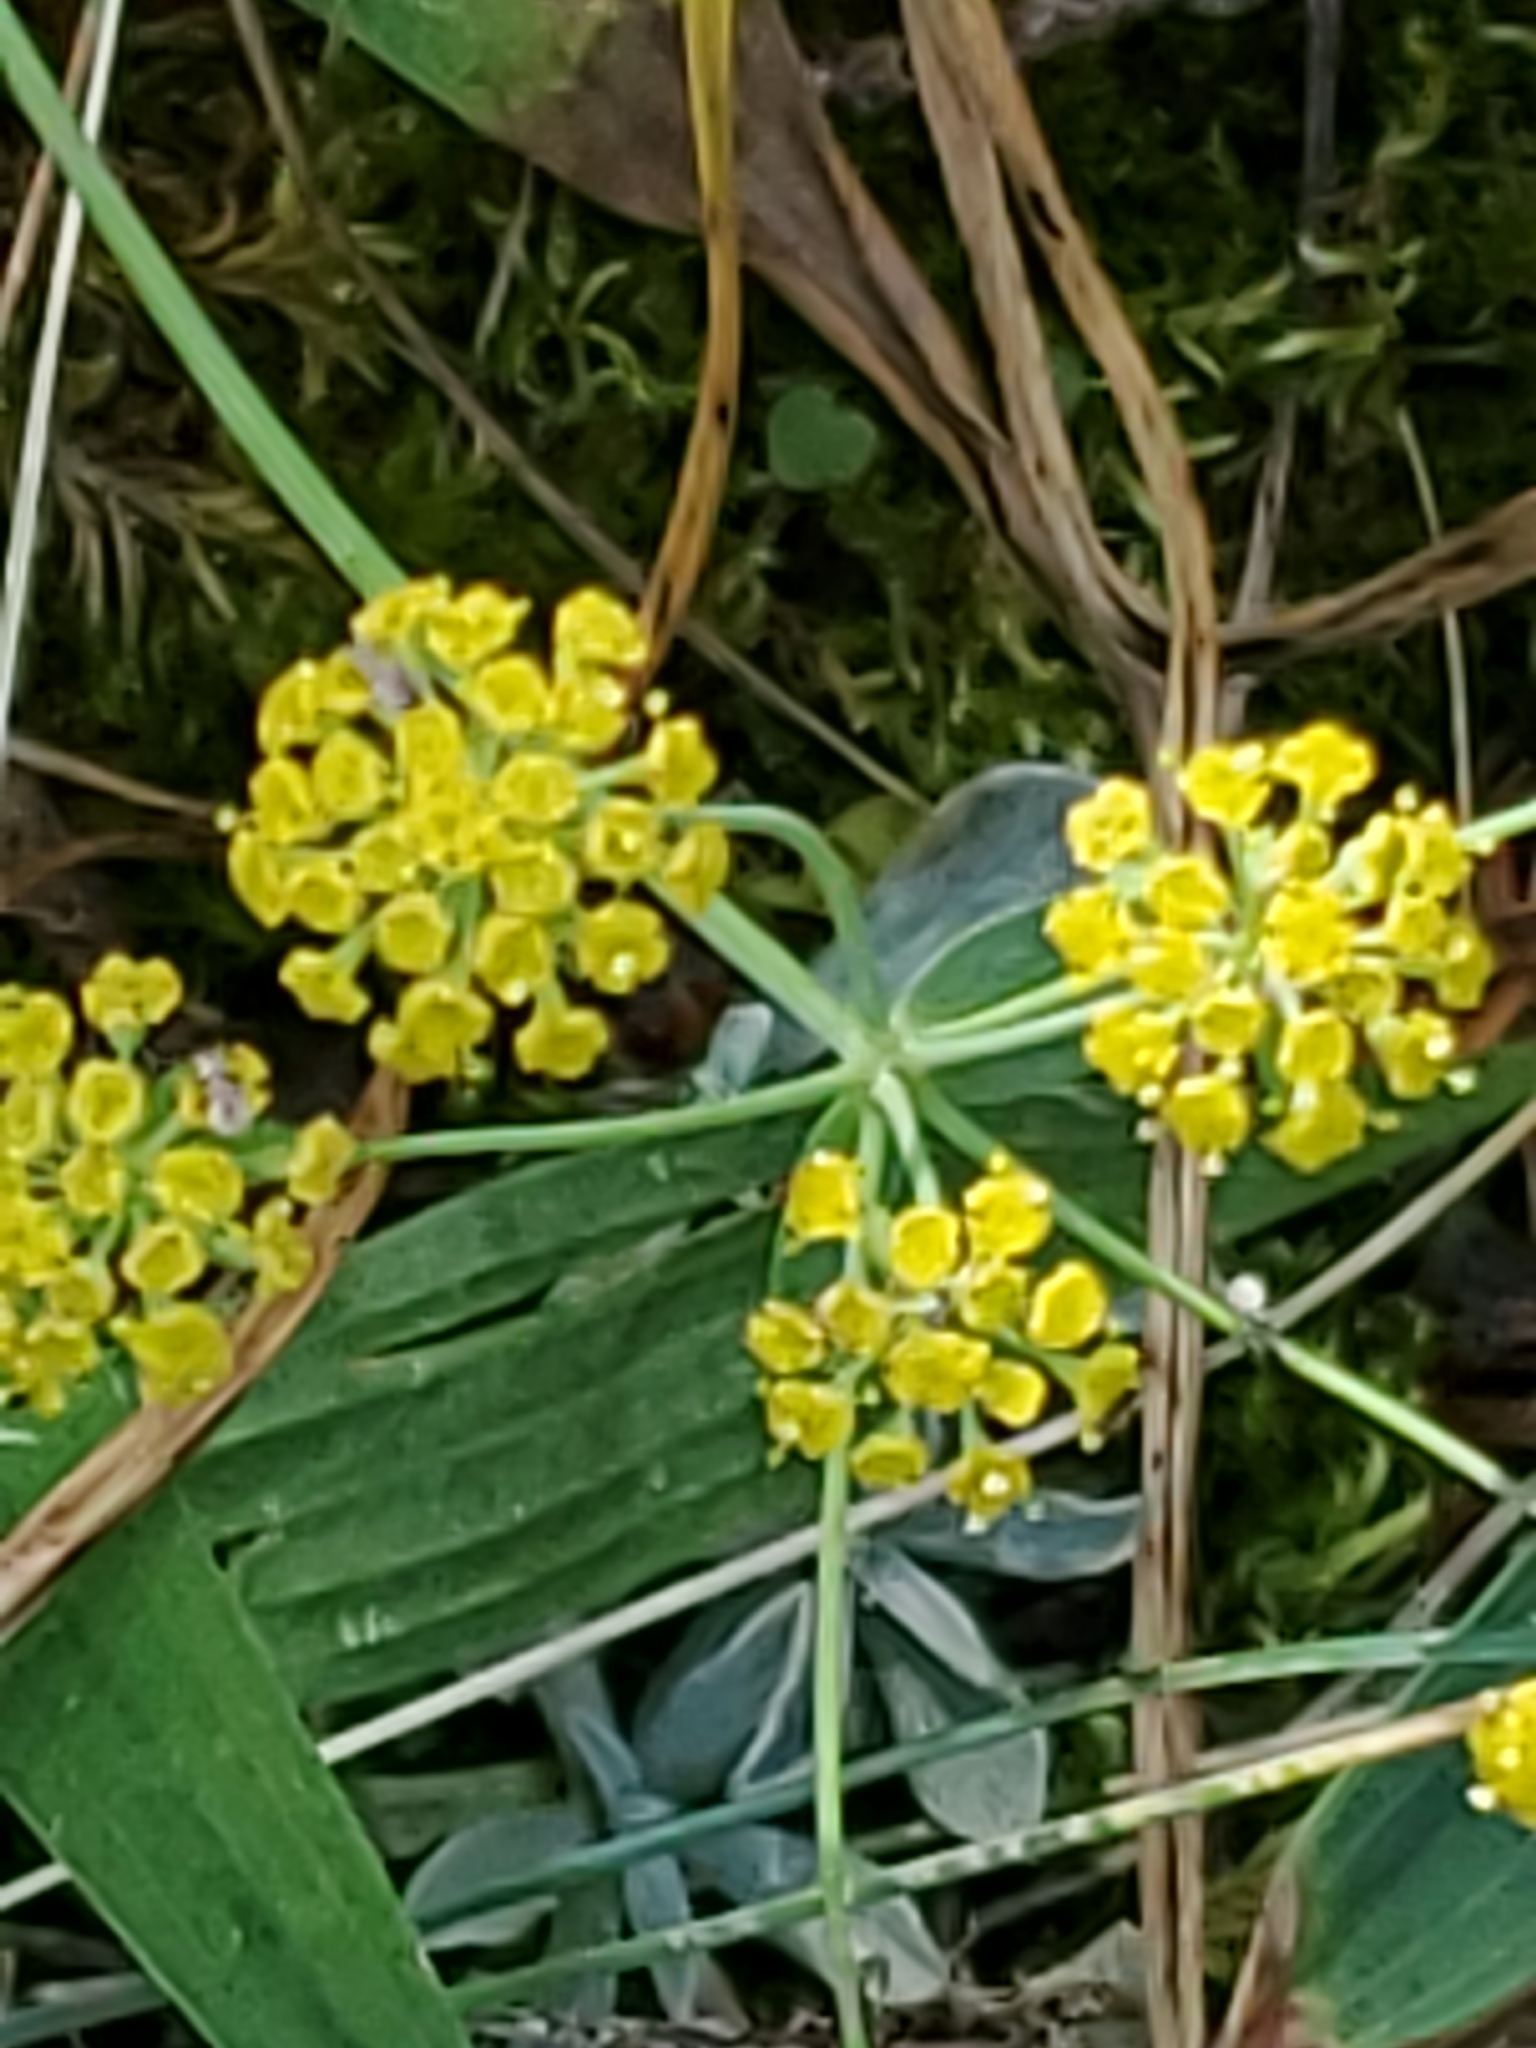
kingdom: Plantae
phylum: Tracheophyta
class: Magnoliopsida
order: Apiales
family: Apiaceae
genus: Bupleurum
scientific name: Bupleurum americanum
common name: American thoroughwax
